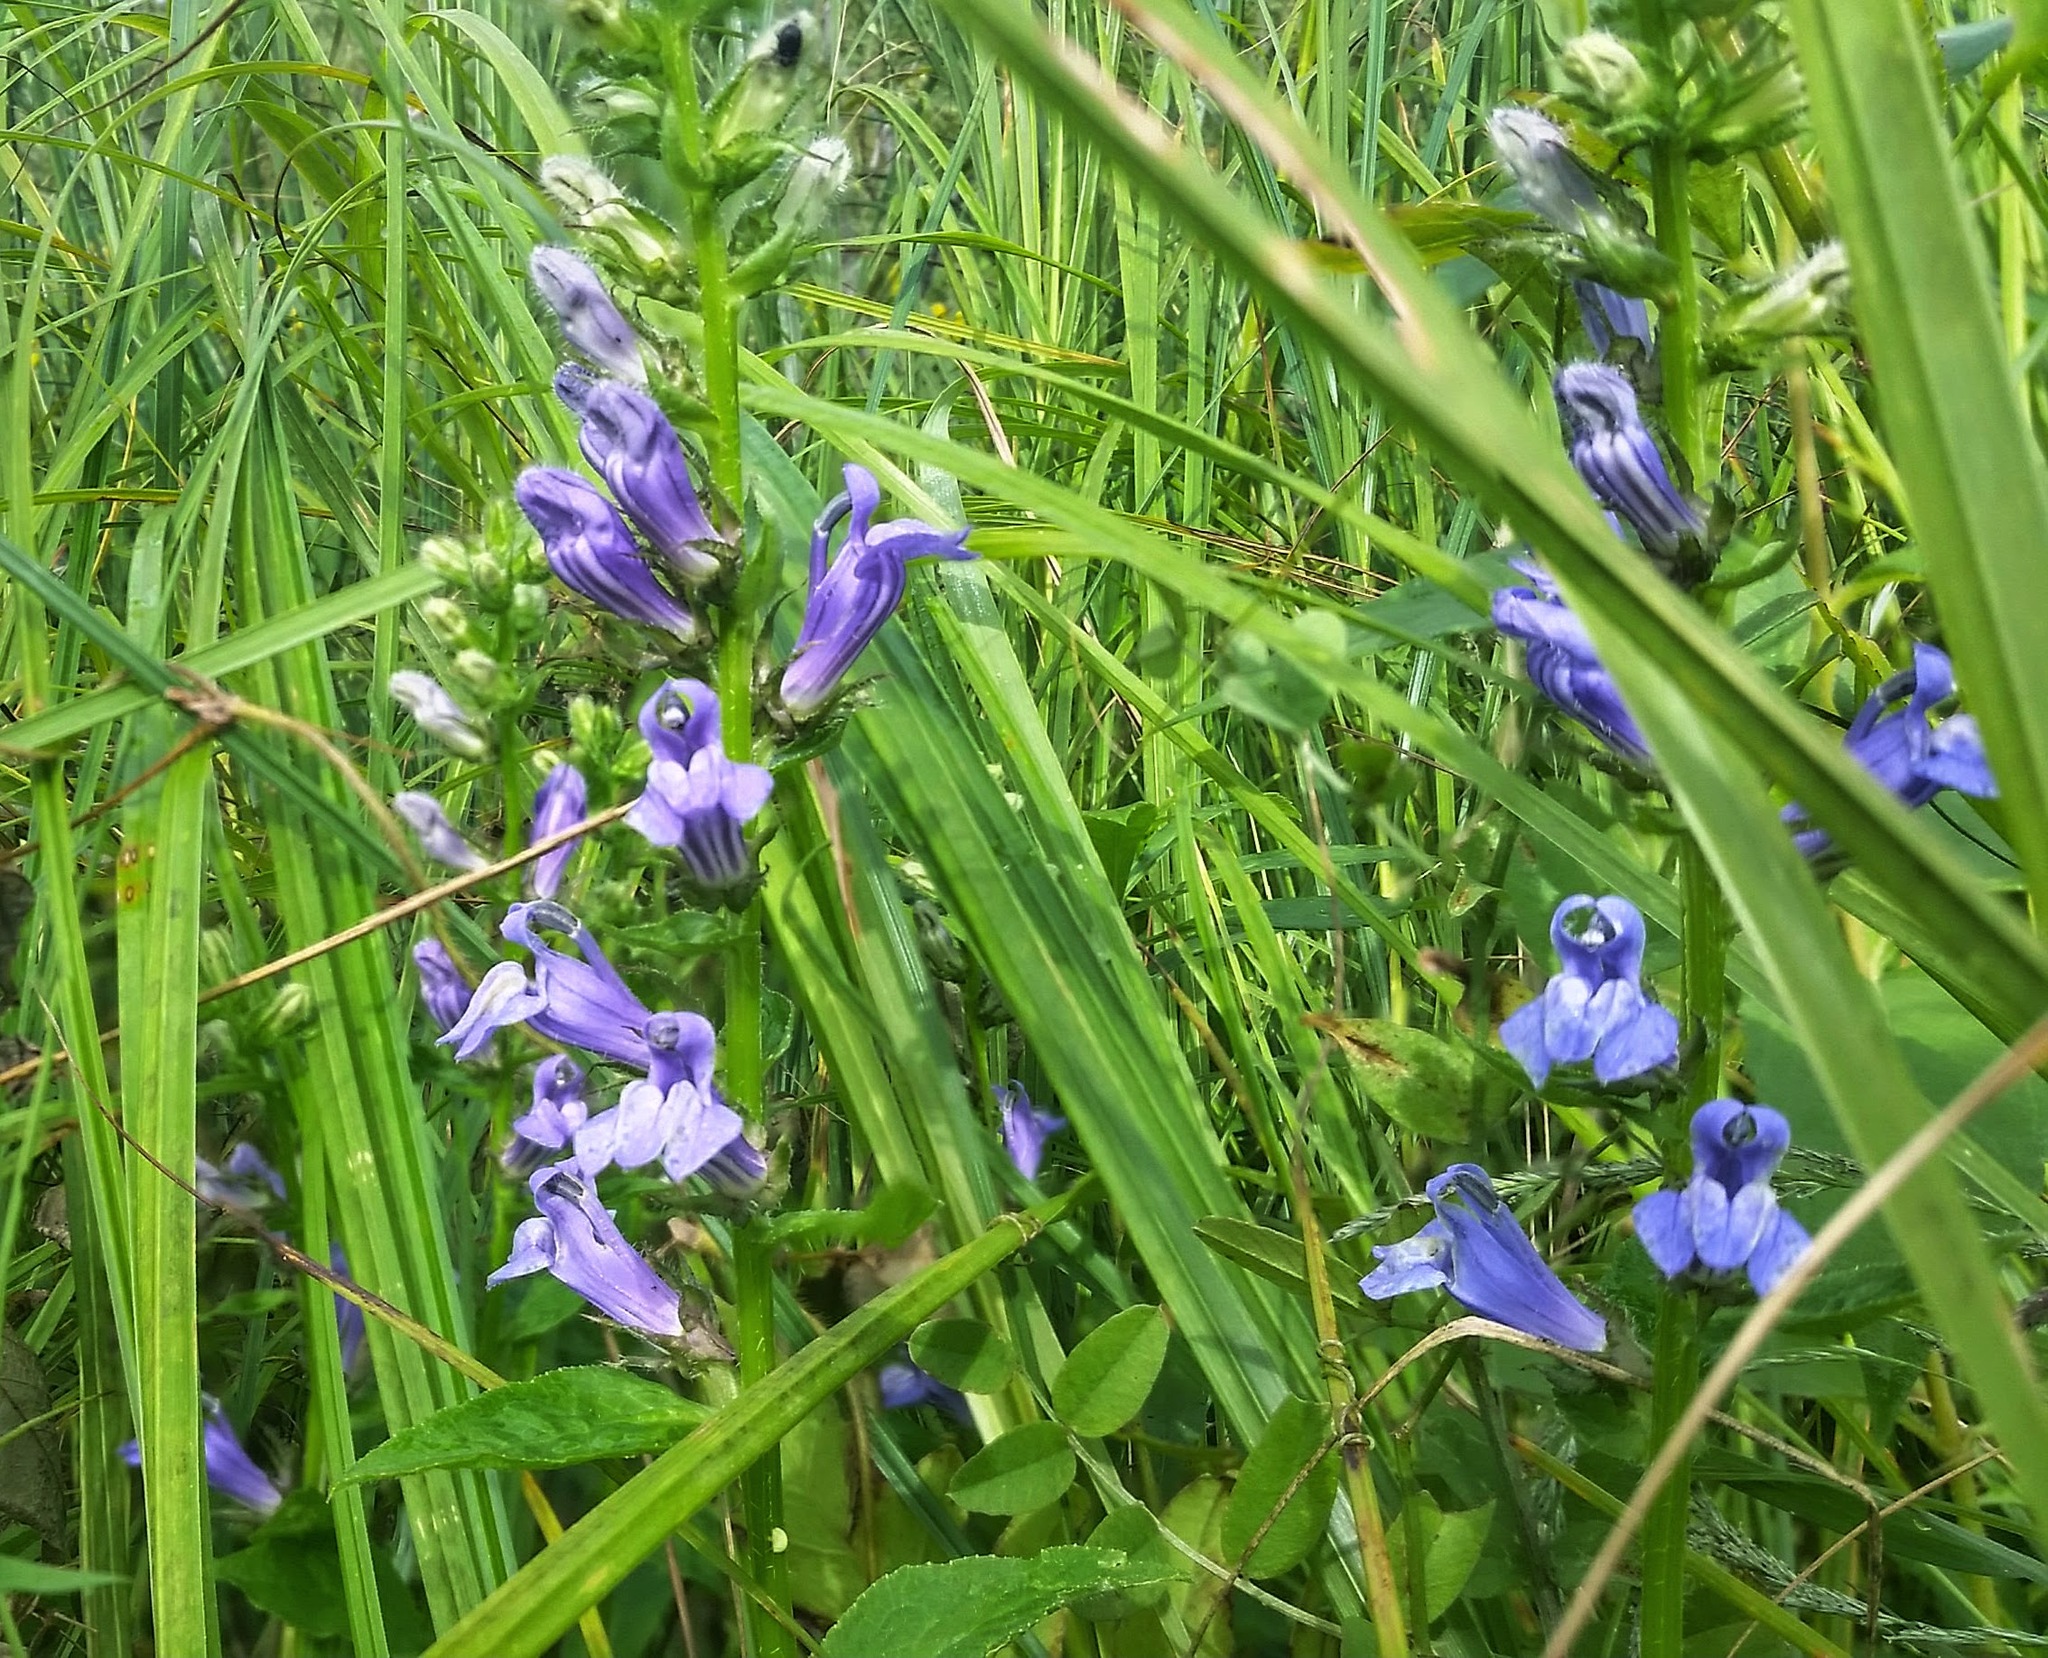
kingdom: Plantae
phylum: Tracheophyta
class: Magnoliopsida
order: Asterales
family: Campanulaceae
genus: Lobelia
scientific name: Lobelia siphilitica
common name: Great lobelia
